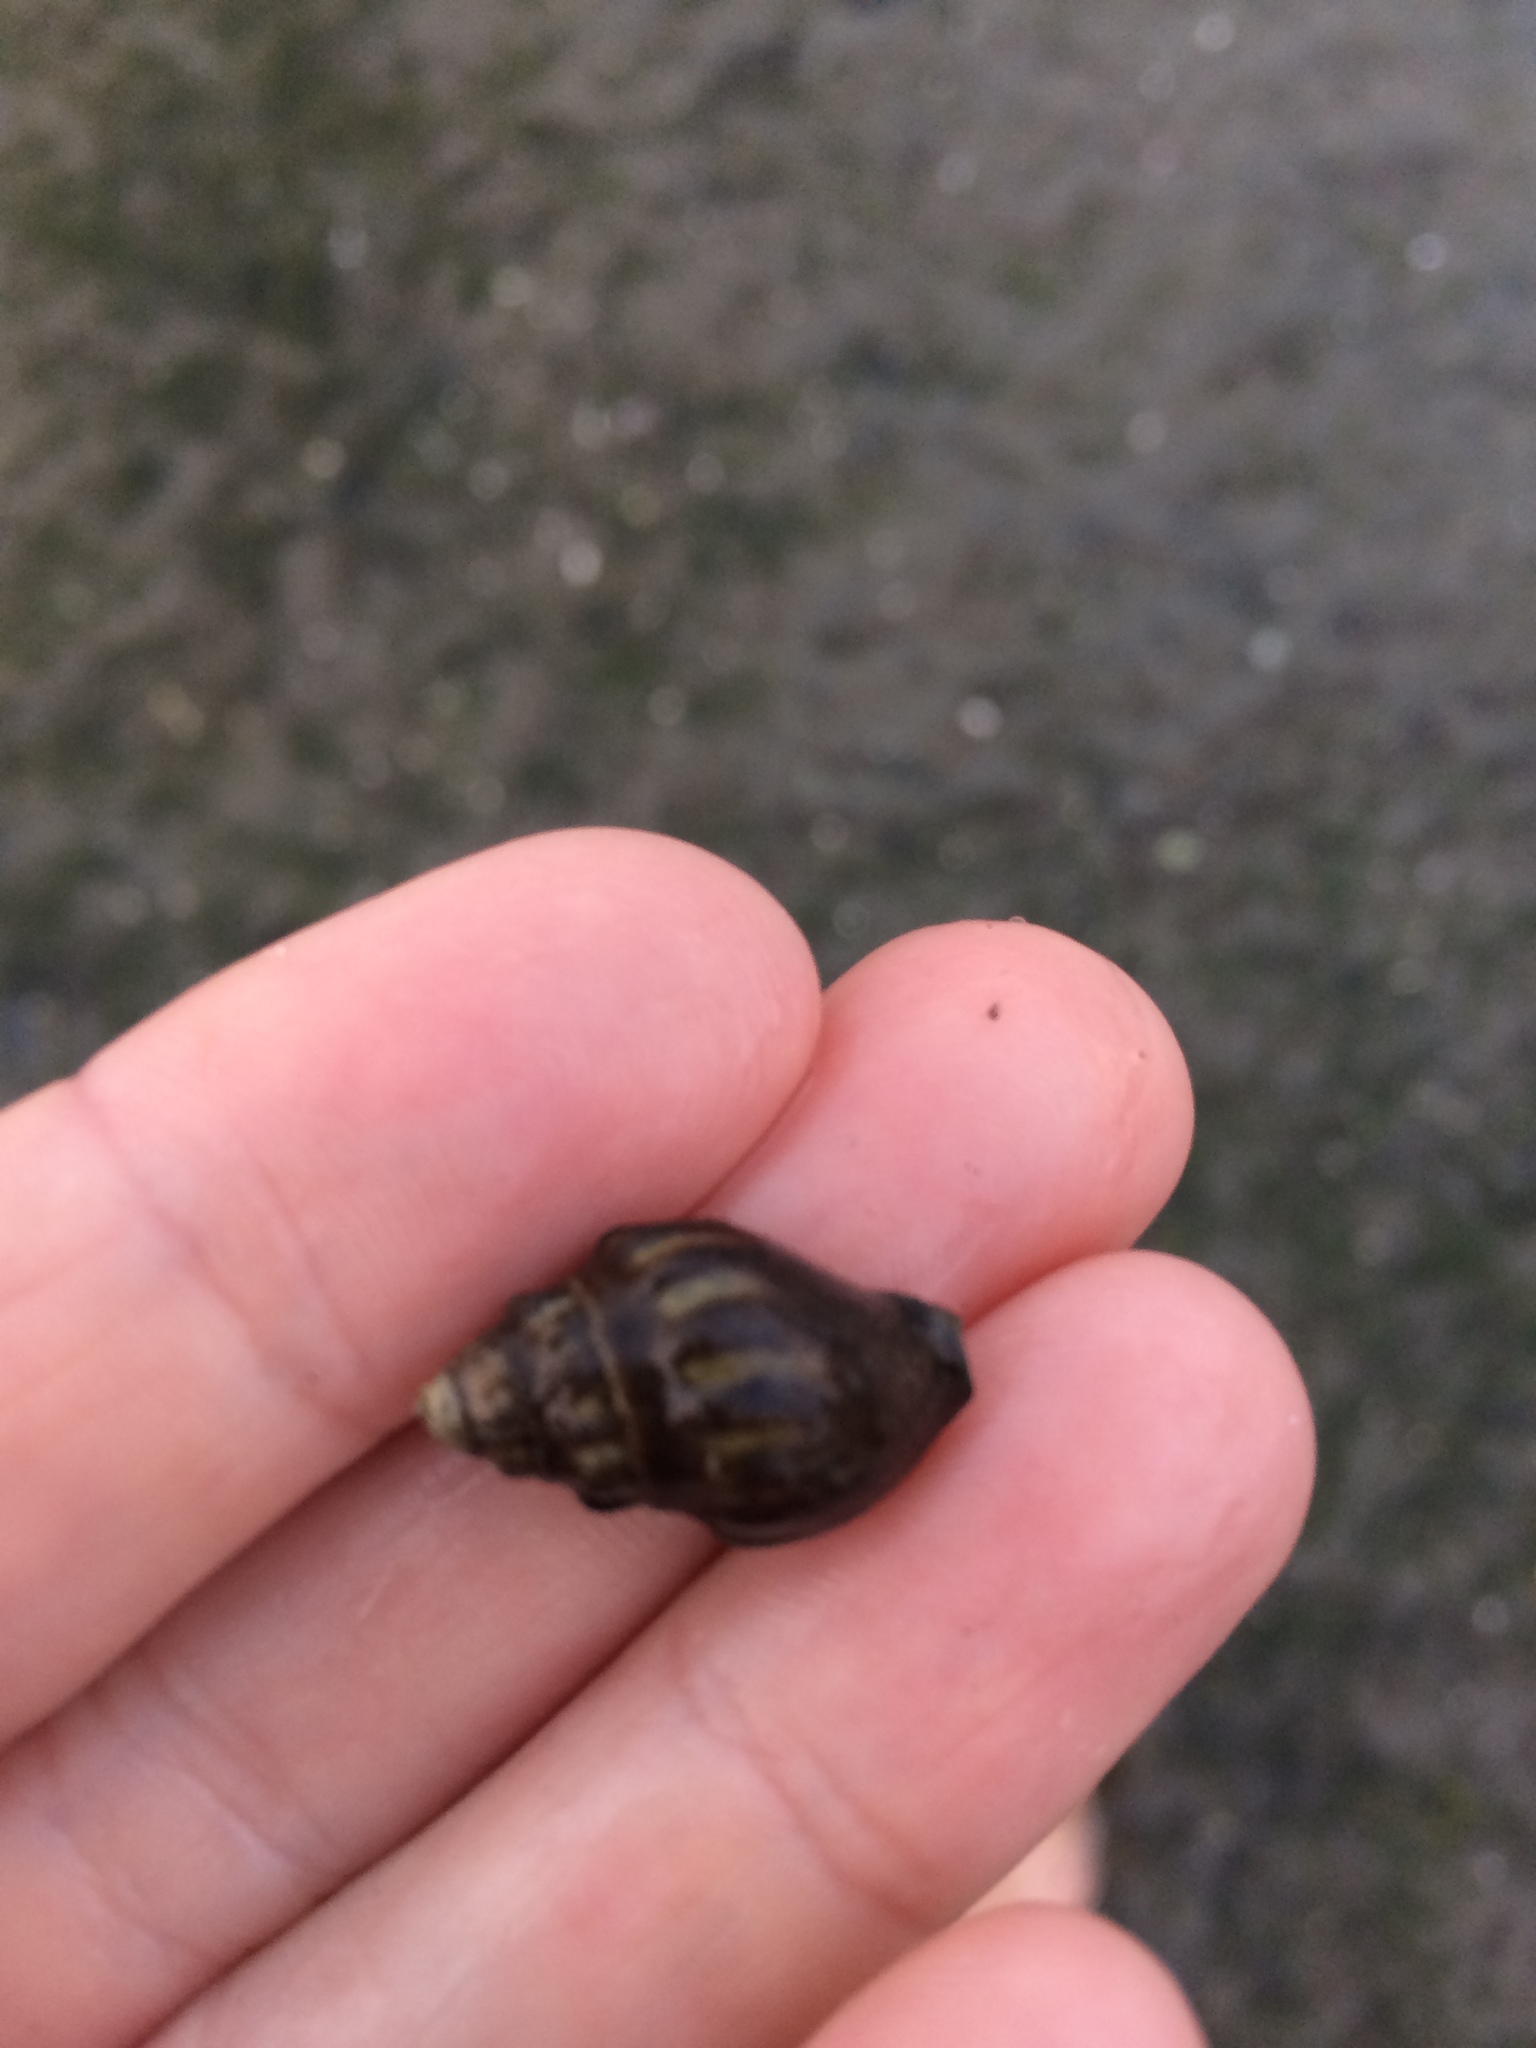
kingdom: Animalia
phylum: Mollusca
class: Gastropoda
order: Neogastropoda
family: Cominellidae
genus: Cominella
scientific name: Cominella glandiformis
